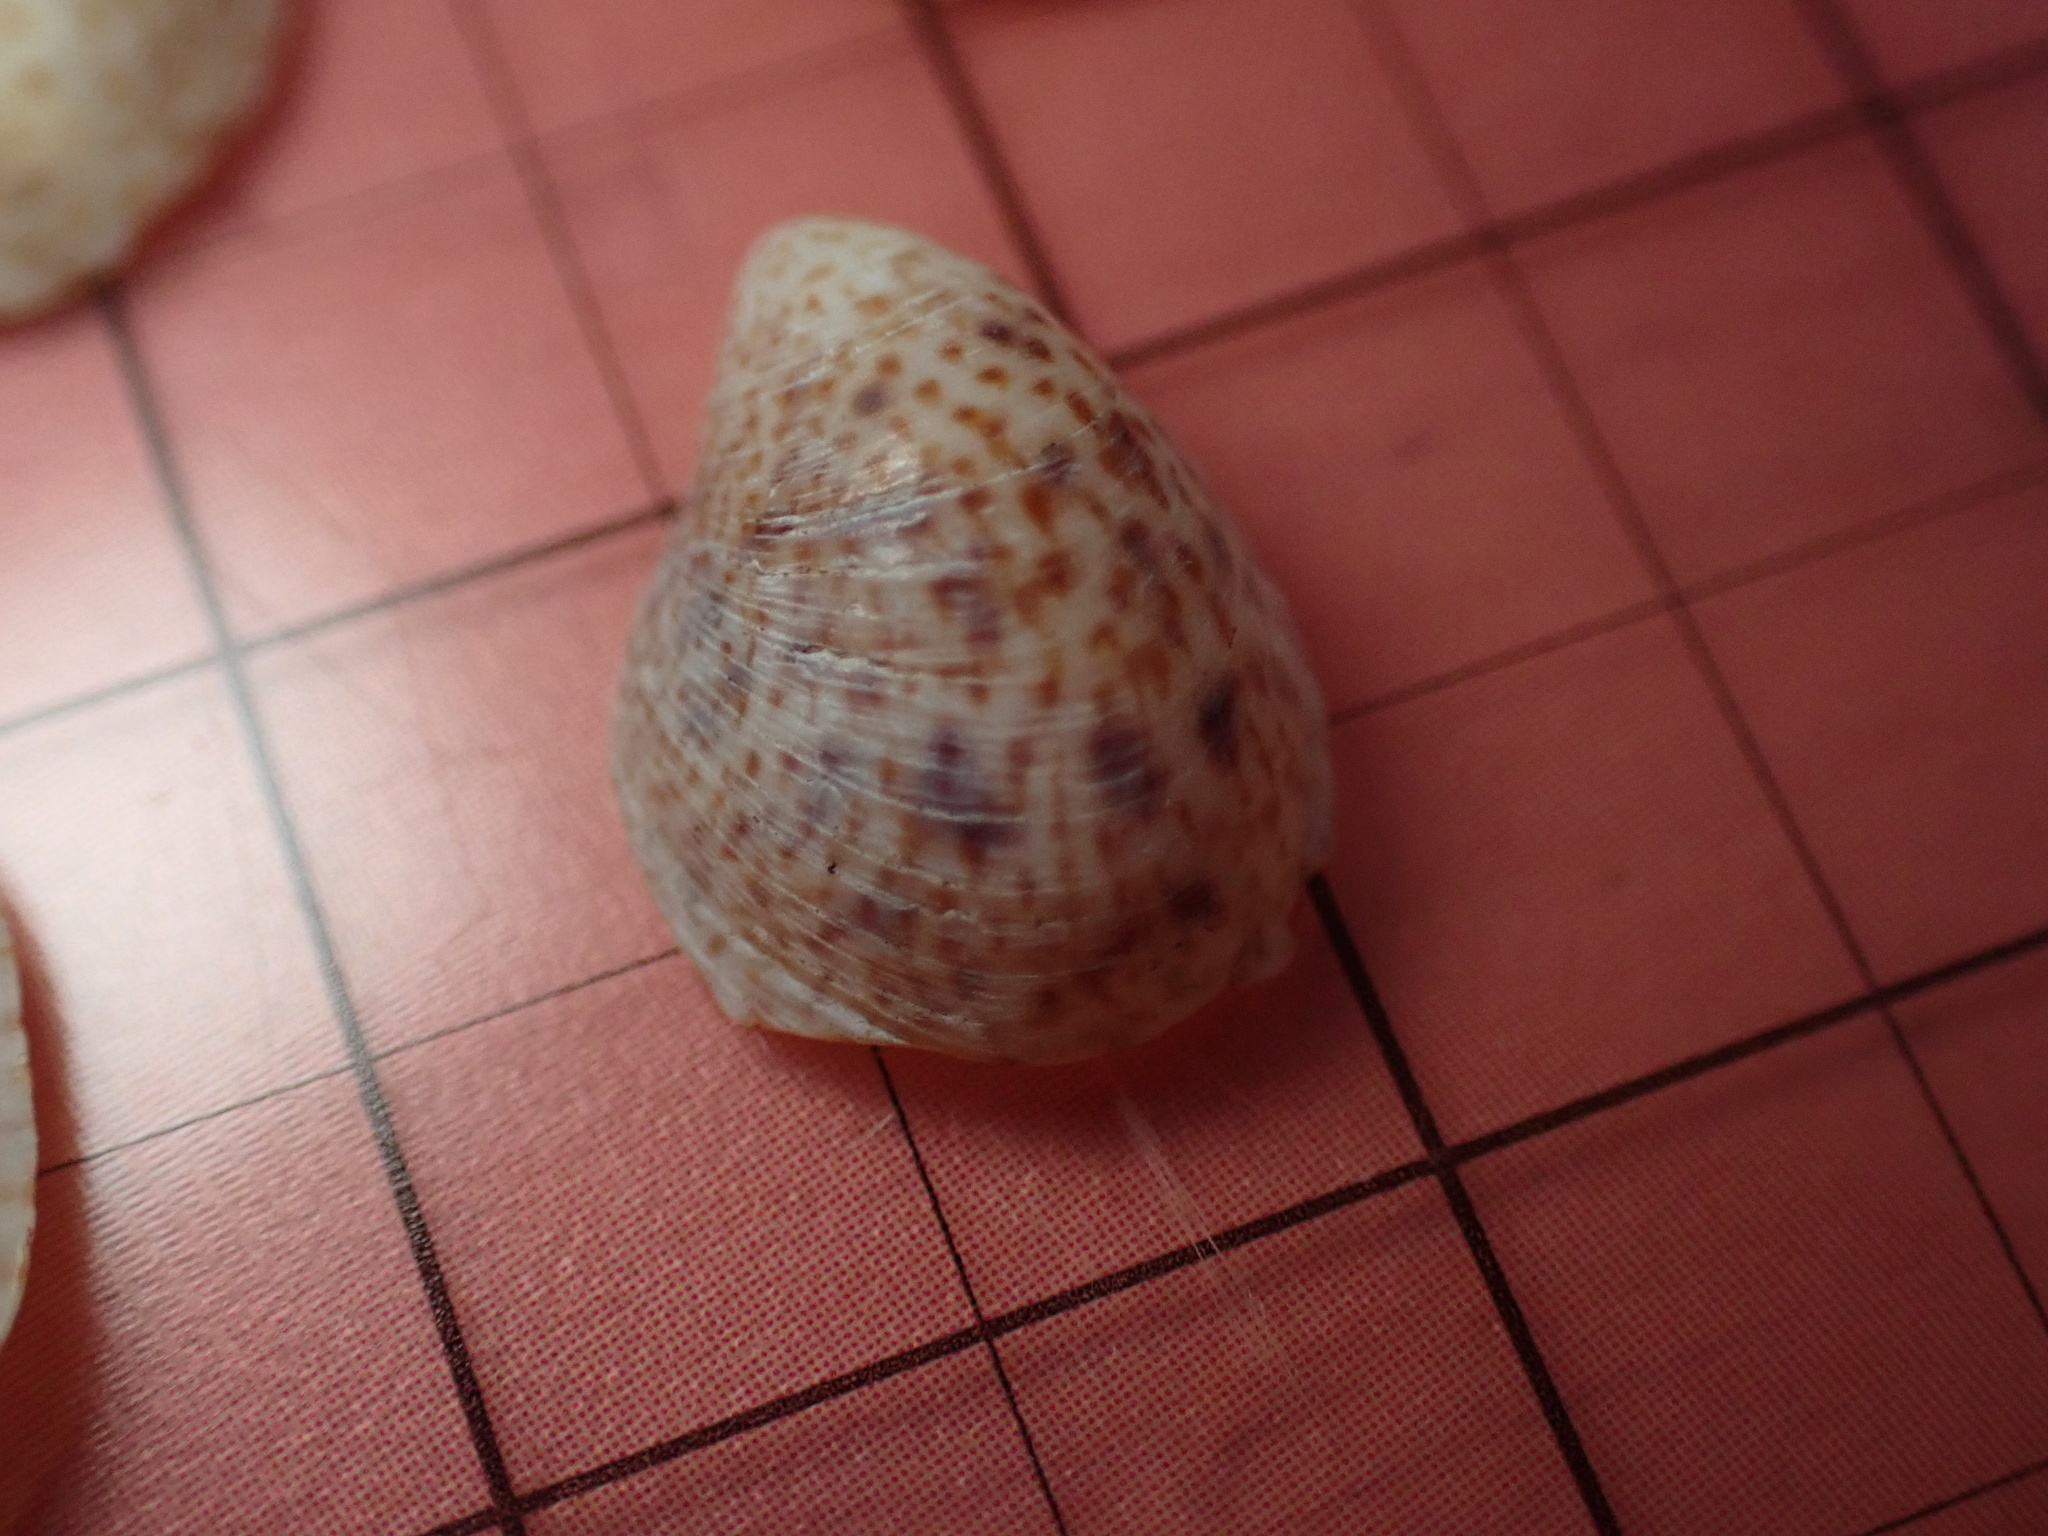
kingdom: Animalia
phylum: Mollusca
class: Gastropoda
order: Littorinimorpha
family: Calyptraeidae
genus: Crepidula
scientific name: Crepidula convexa
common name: Convex slippersnail
